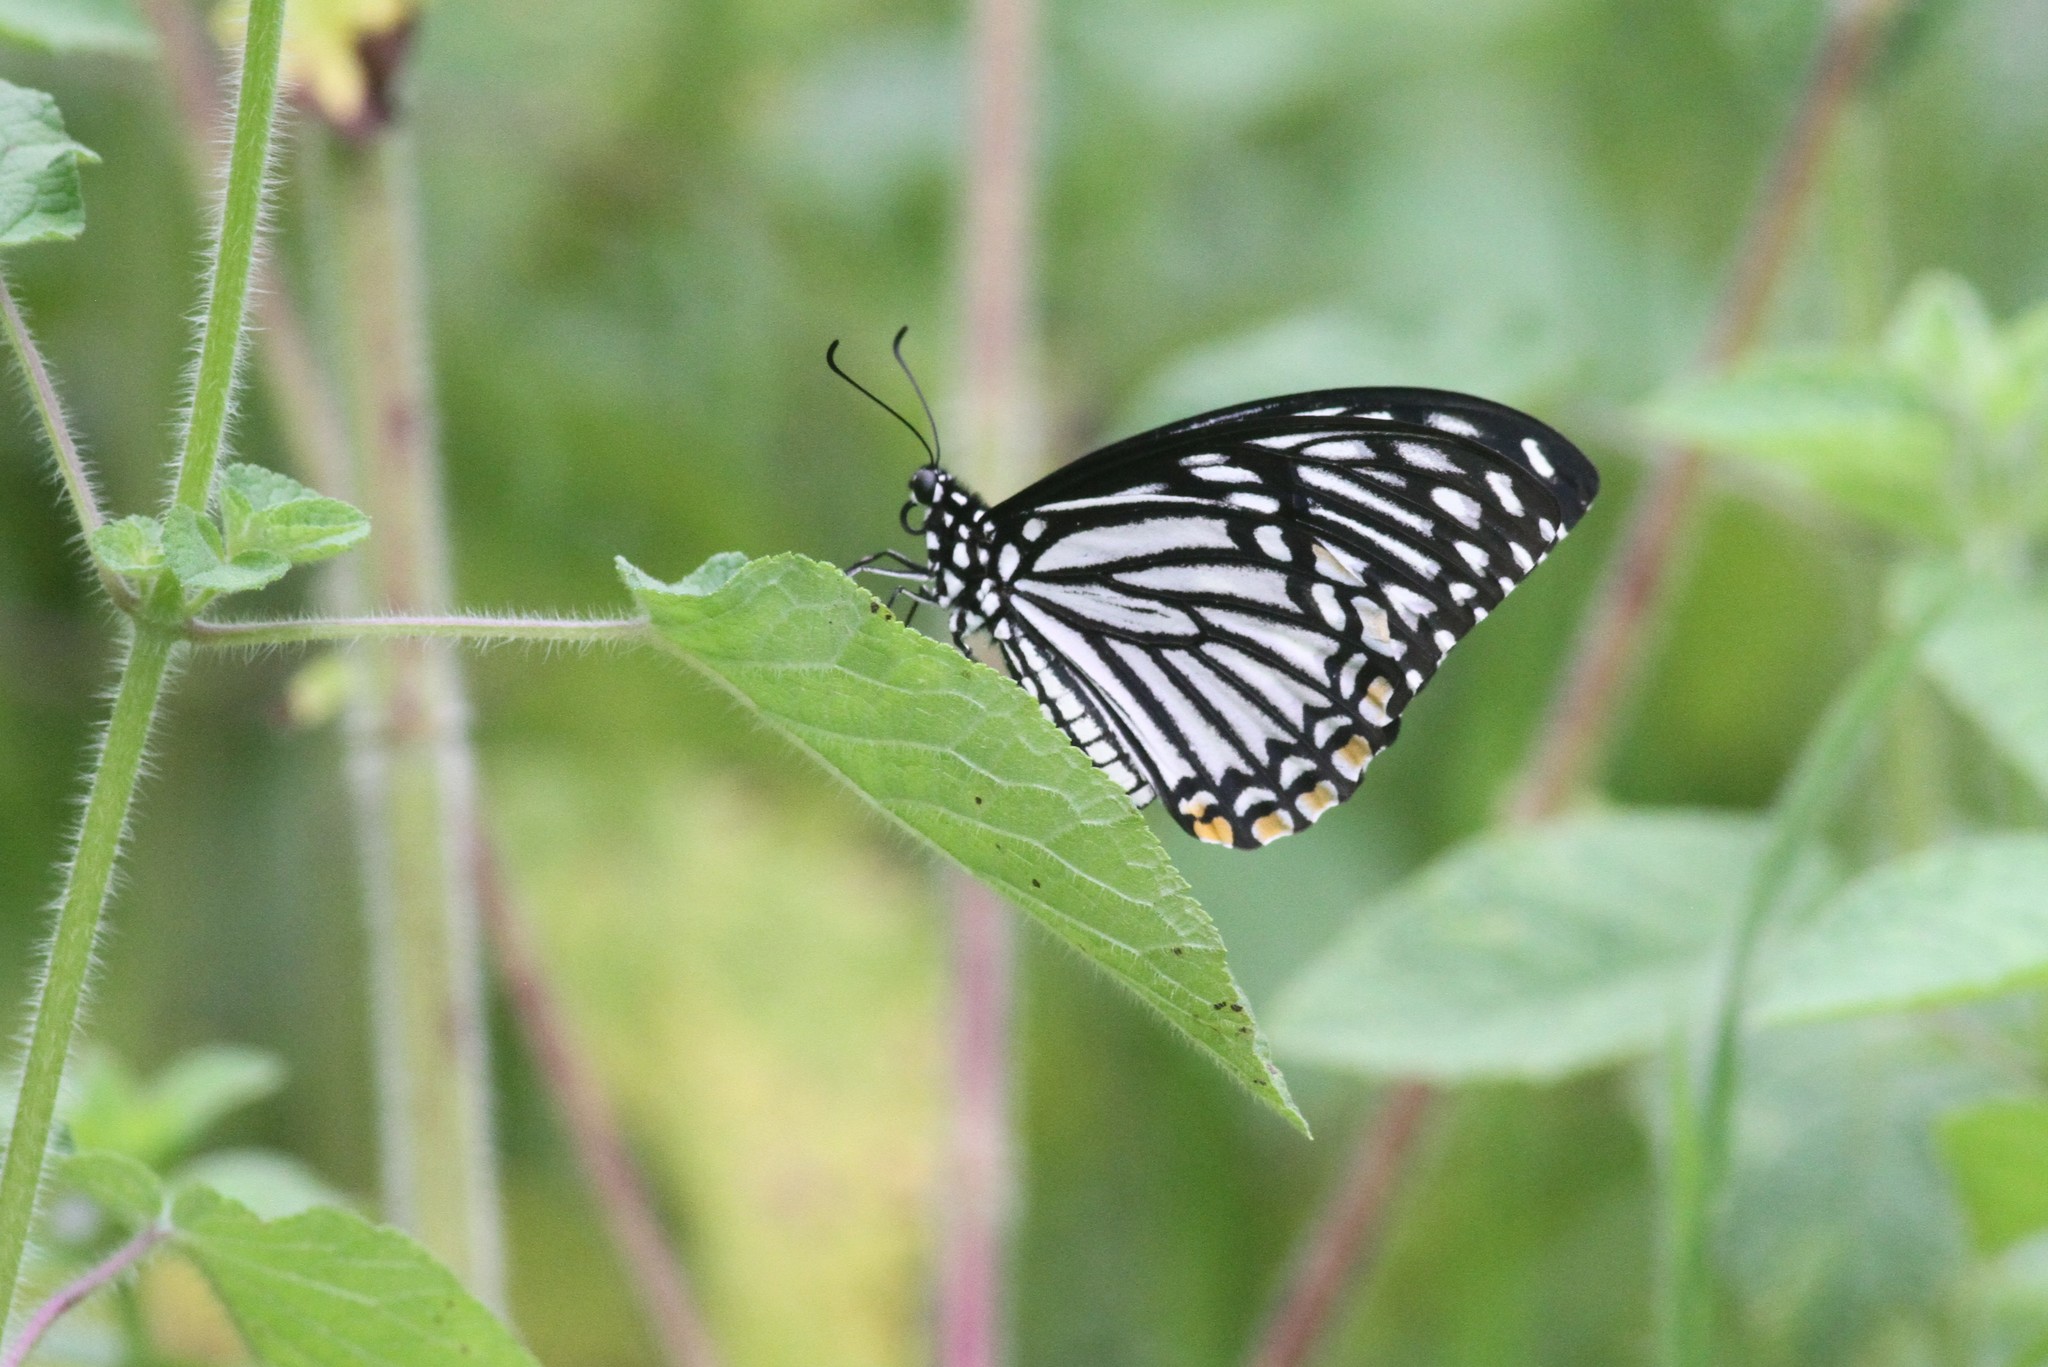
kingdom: Animalia
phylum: Arthropoda
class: Insecta
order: Lepidoptera
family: Papilionidae
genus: Chilasa
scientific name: Chilasa clytia
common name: Common mime
